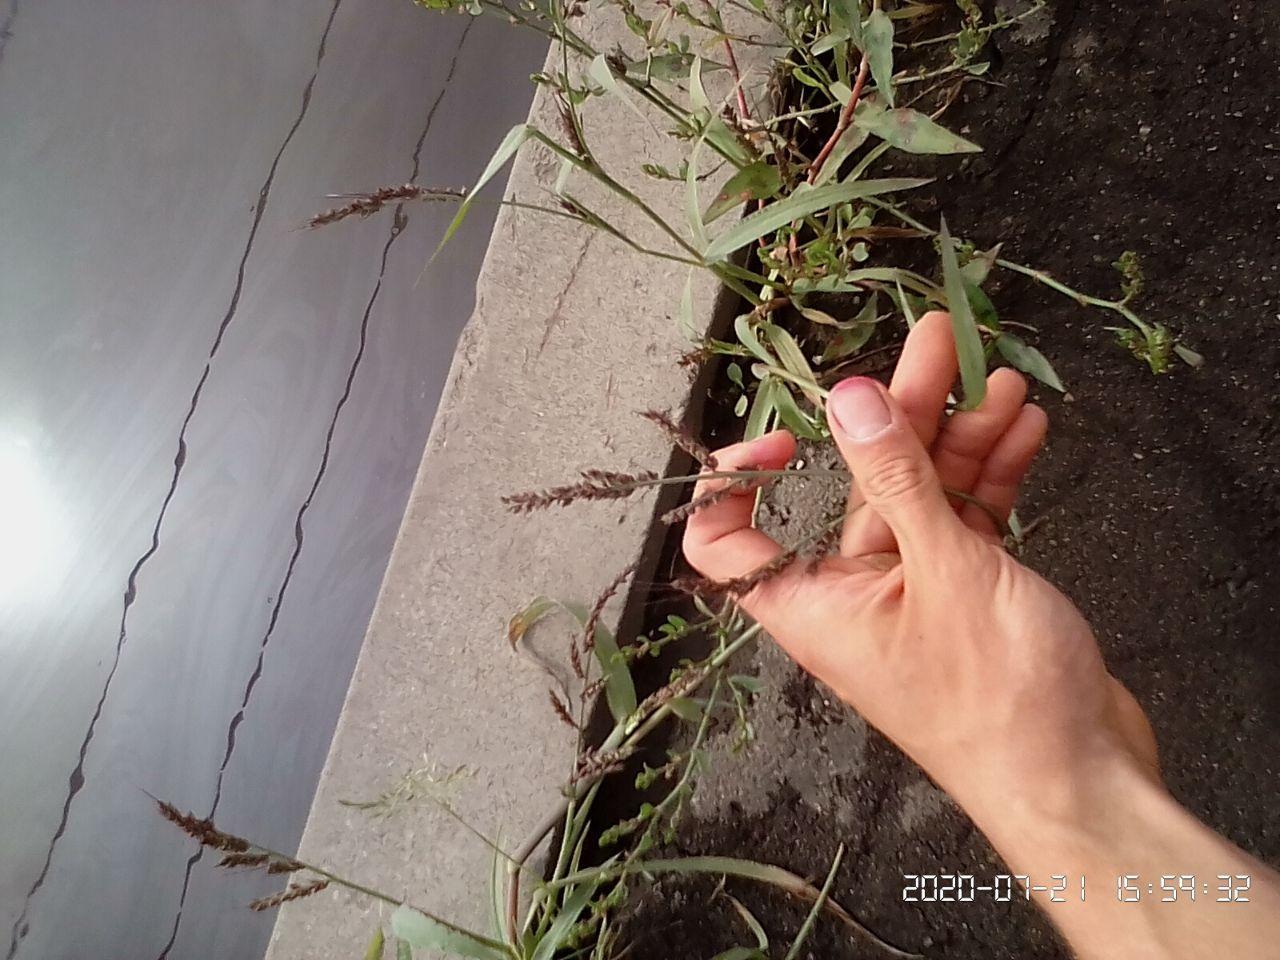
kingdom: Plantae
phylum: Tracheophyta
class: Liliopsida
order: Poales
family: Poaceae
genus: Echinochloa
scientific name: Echinochloa crus-galli
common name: Cockspur
